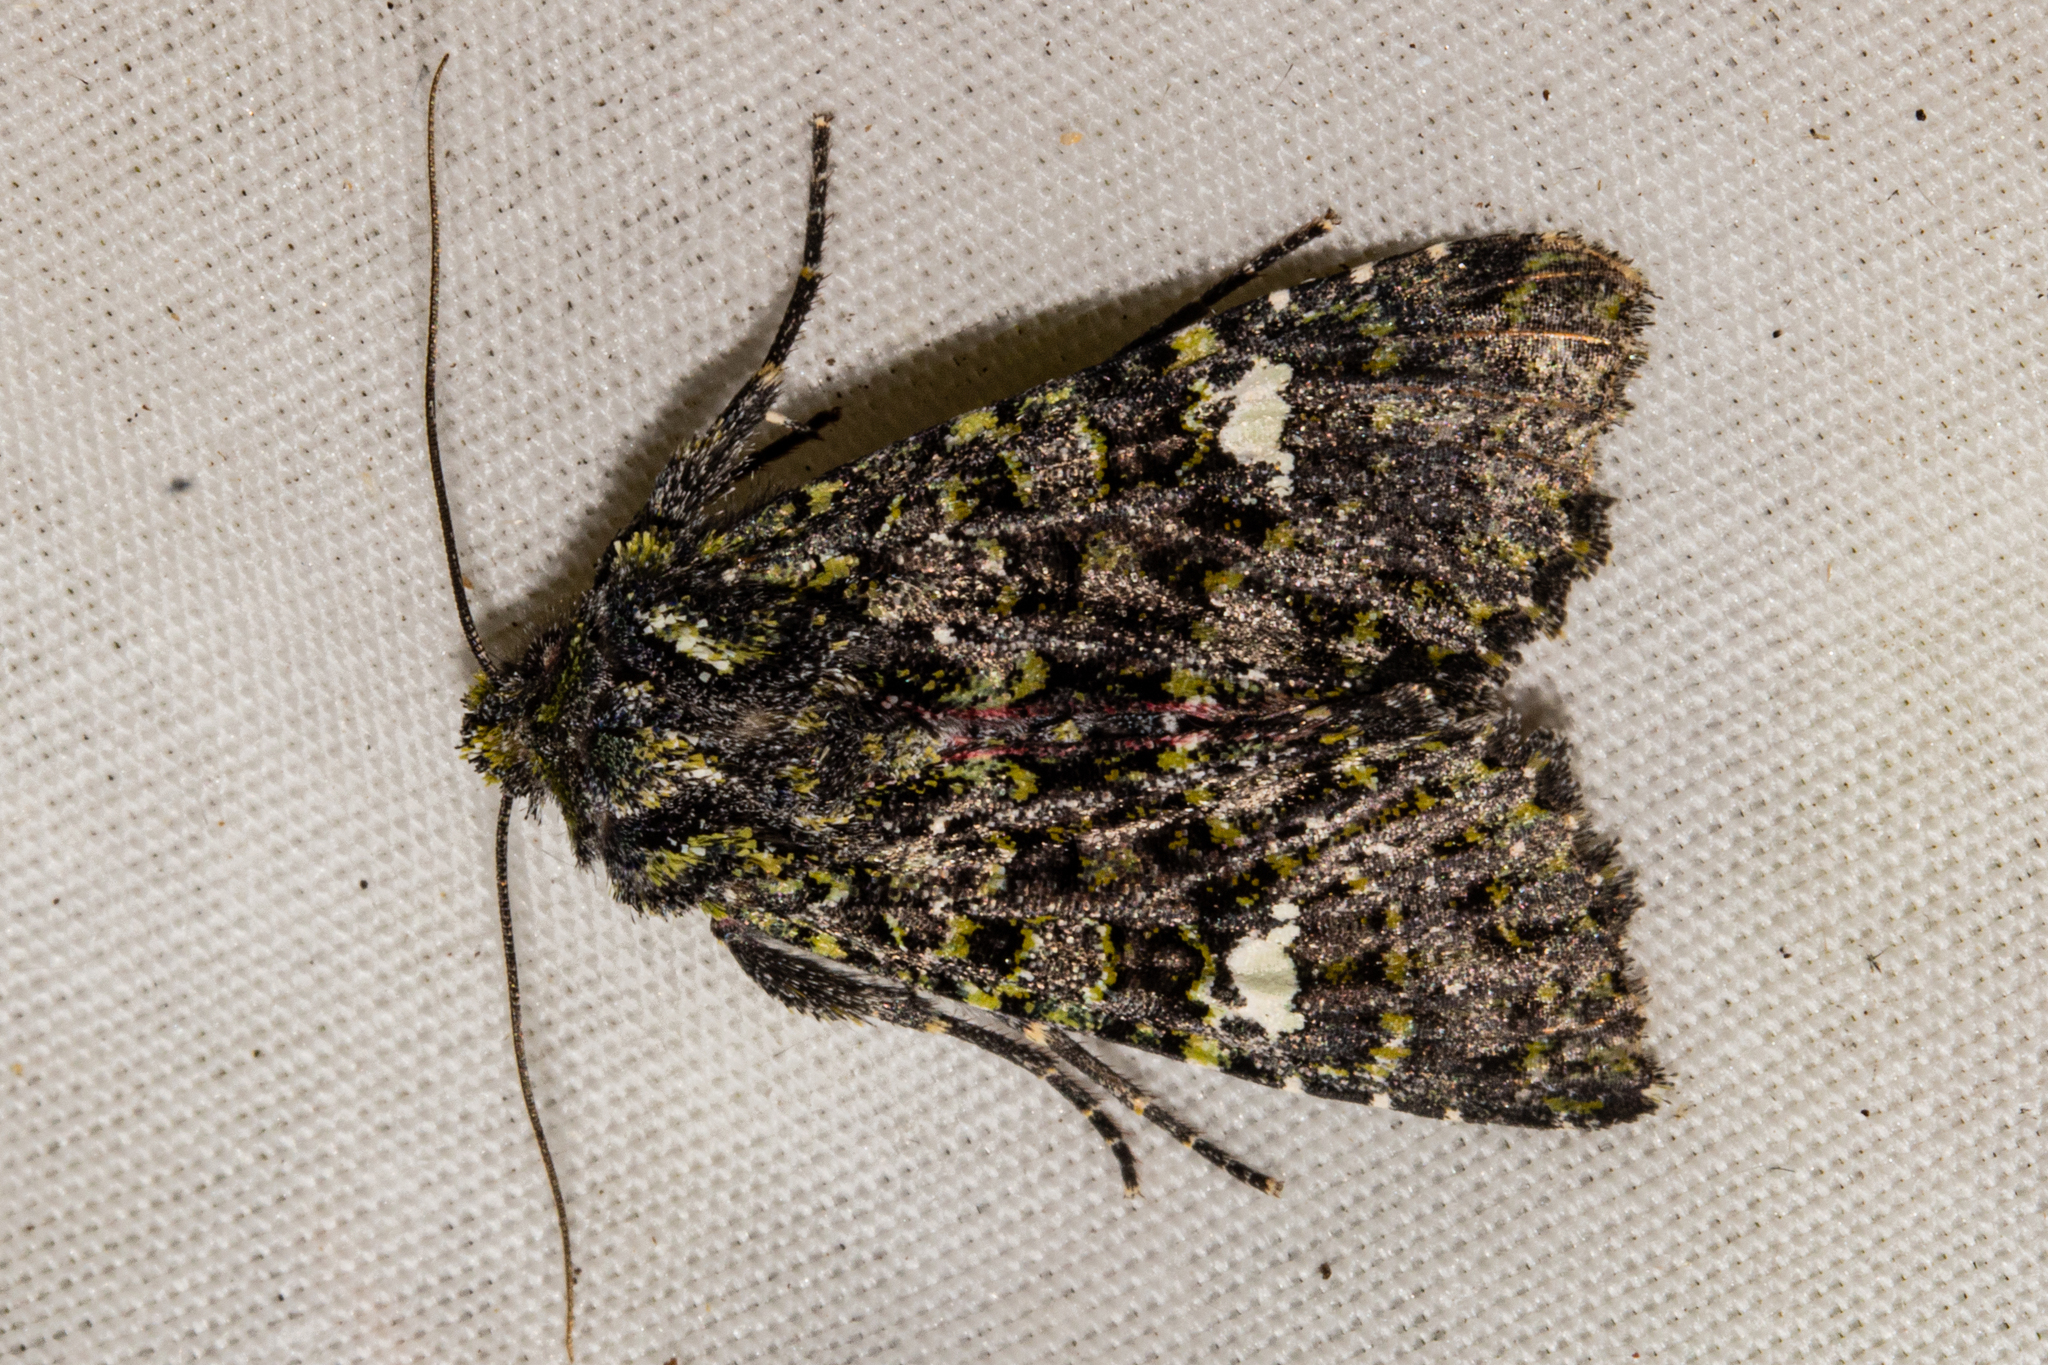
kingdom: Animalia
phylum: Arthropoda
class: Insecta
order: Lepidoptera
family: Noctuidae
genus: Meterana
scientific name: Meterana meyricci
